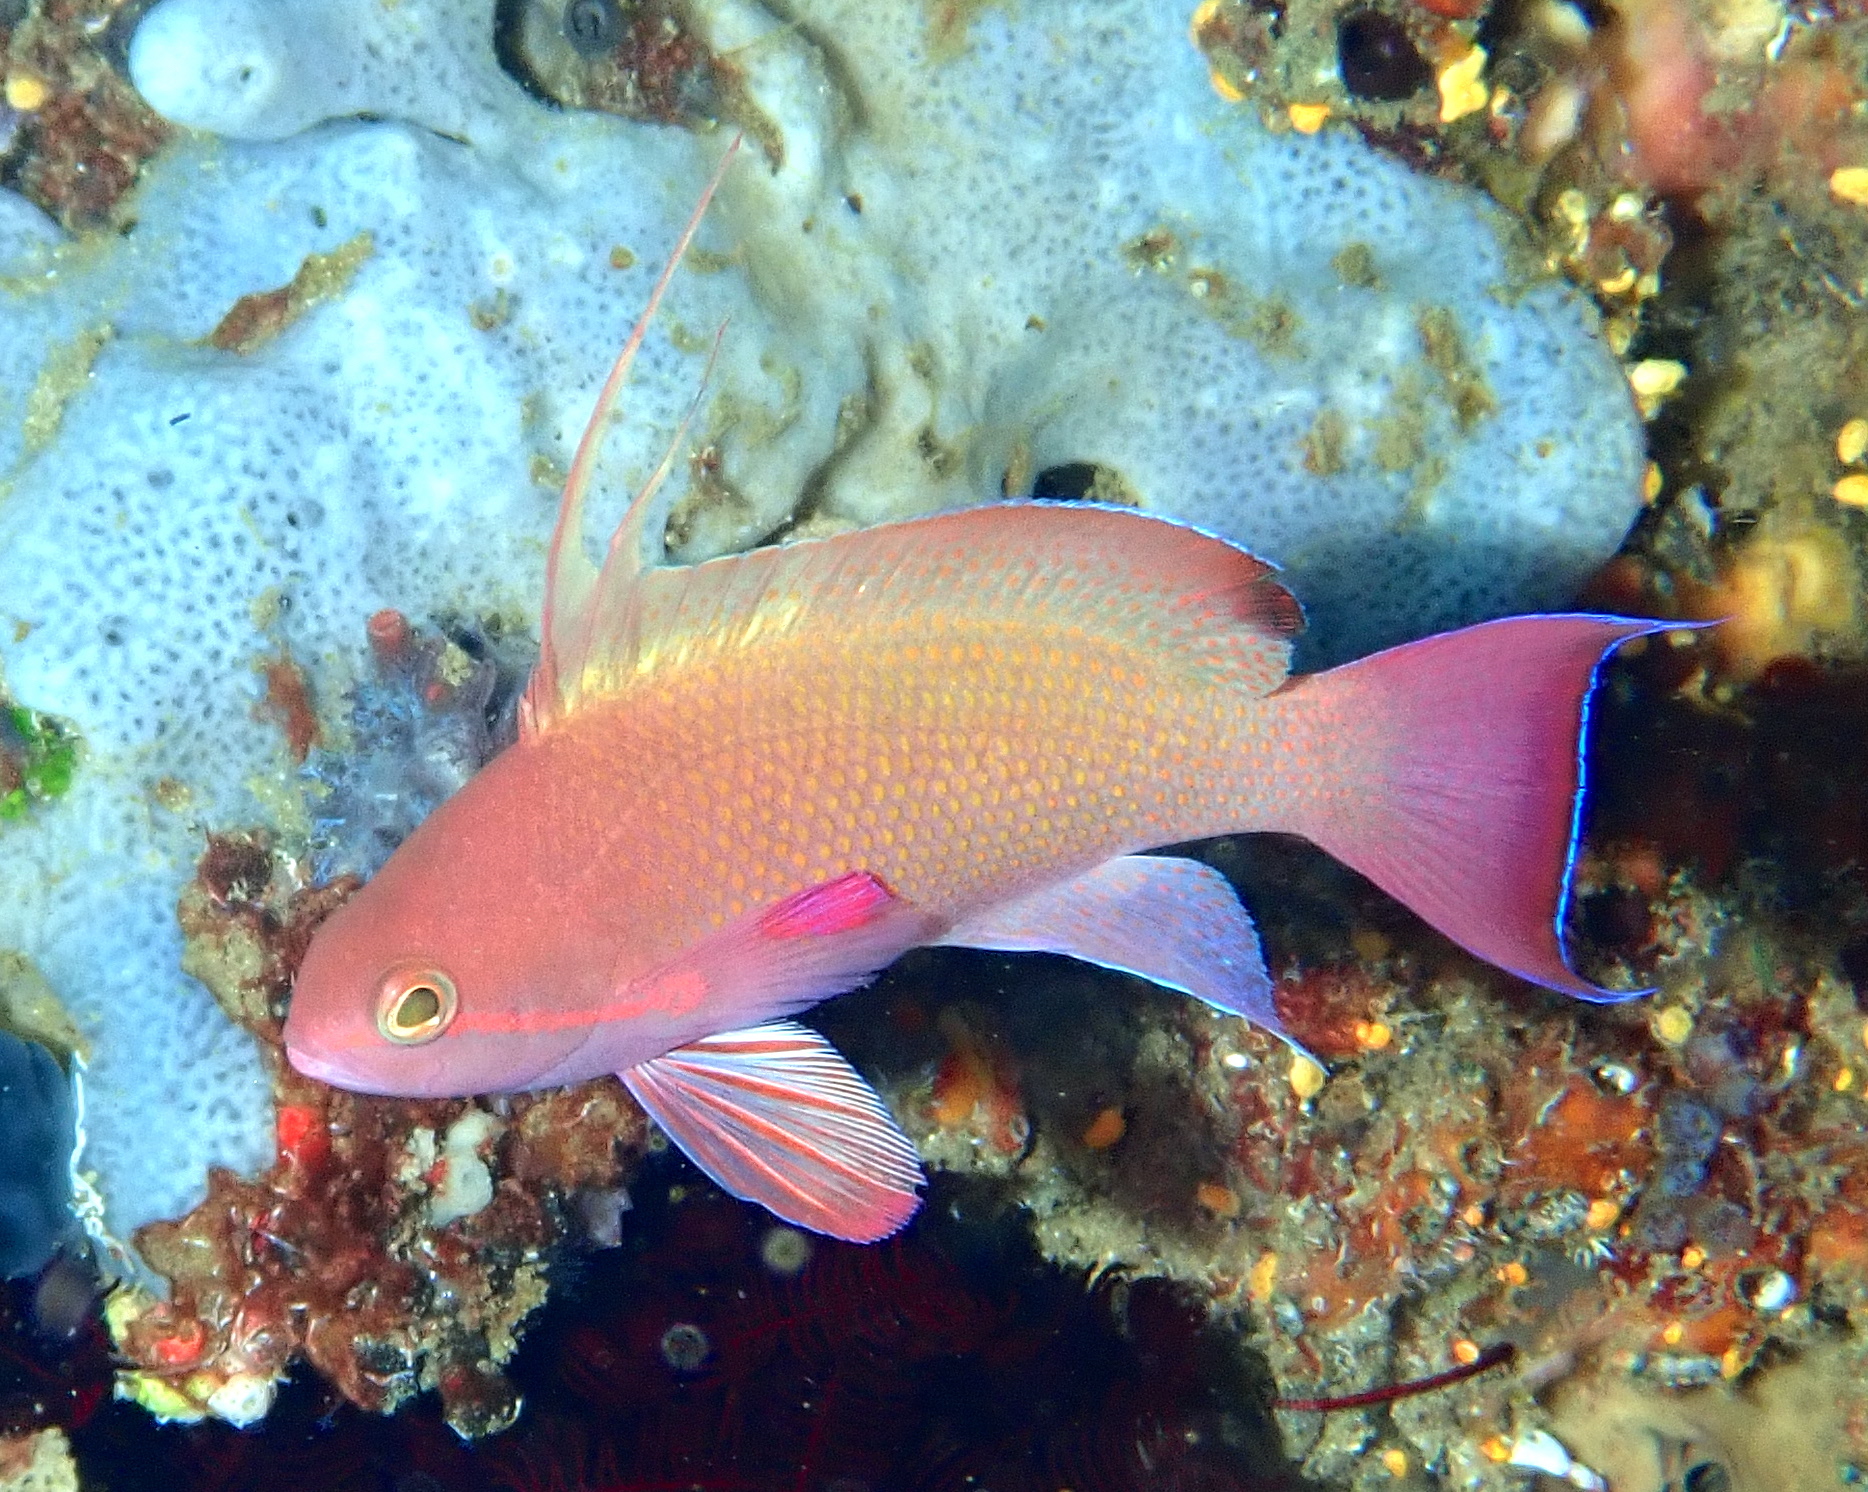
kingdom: Animalia
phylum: Chordata
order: Perciformes
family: Serranidae
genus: Pseudanthias
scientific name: Pseudanthias squamipinnis
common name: Scalefin anthias
